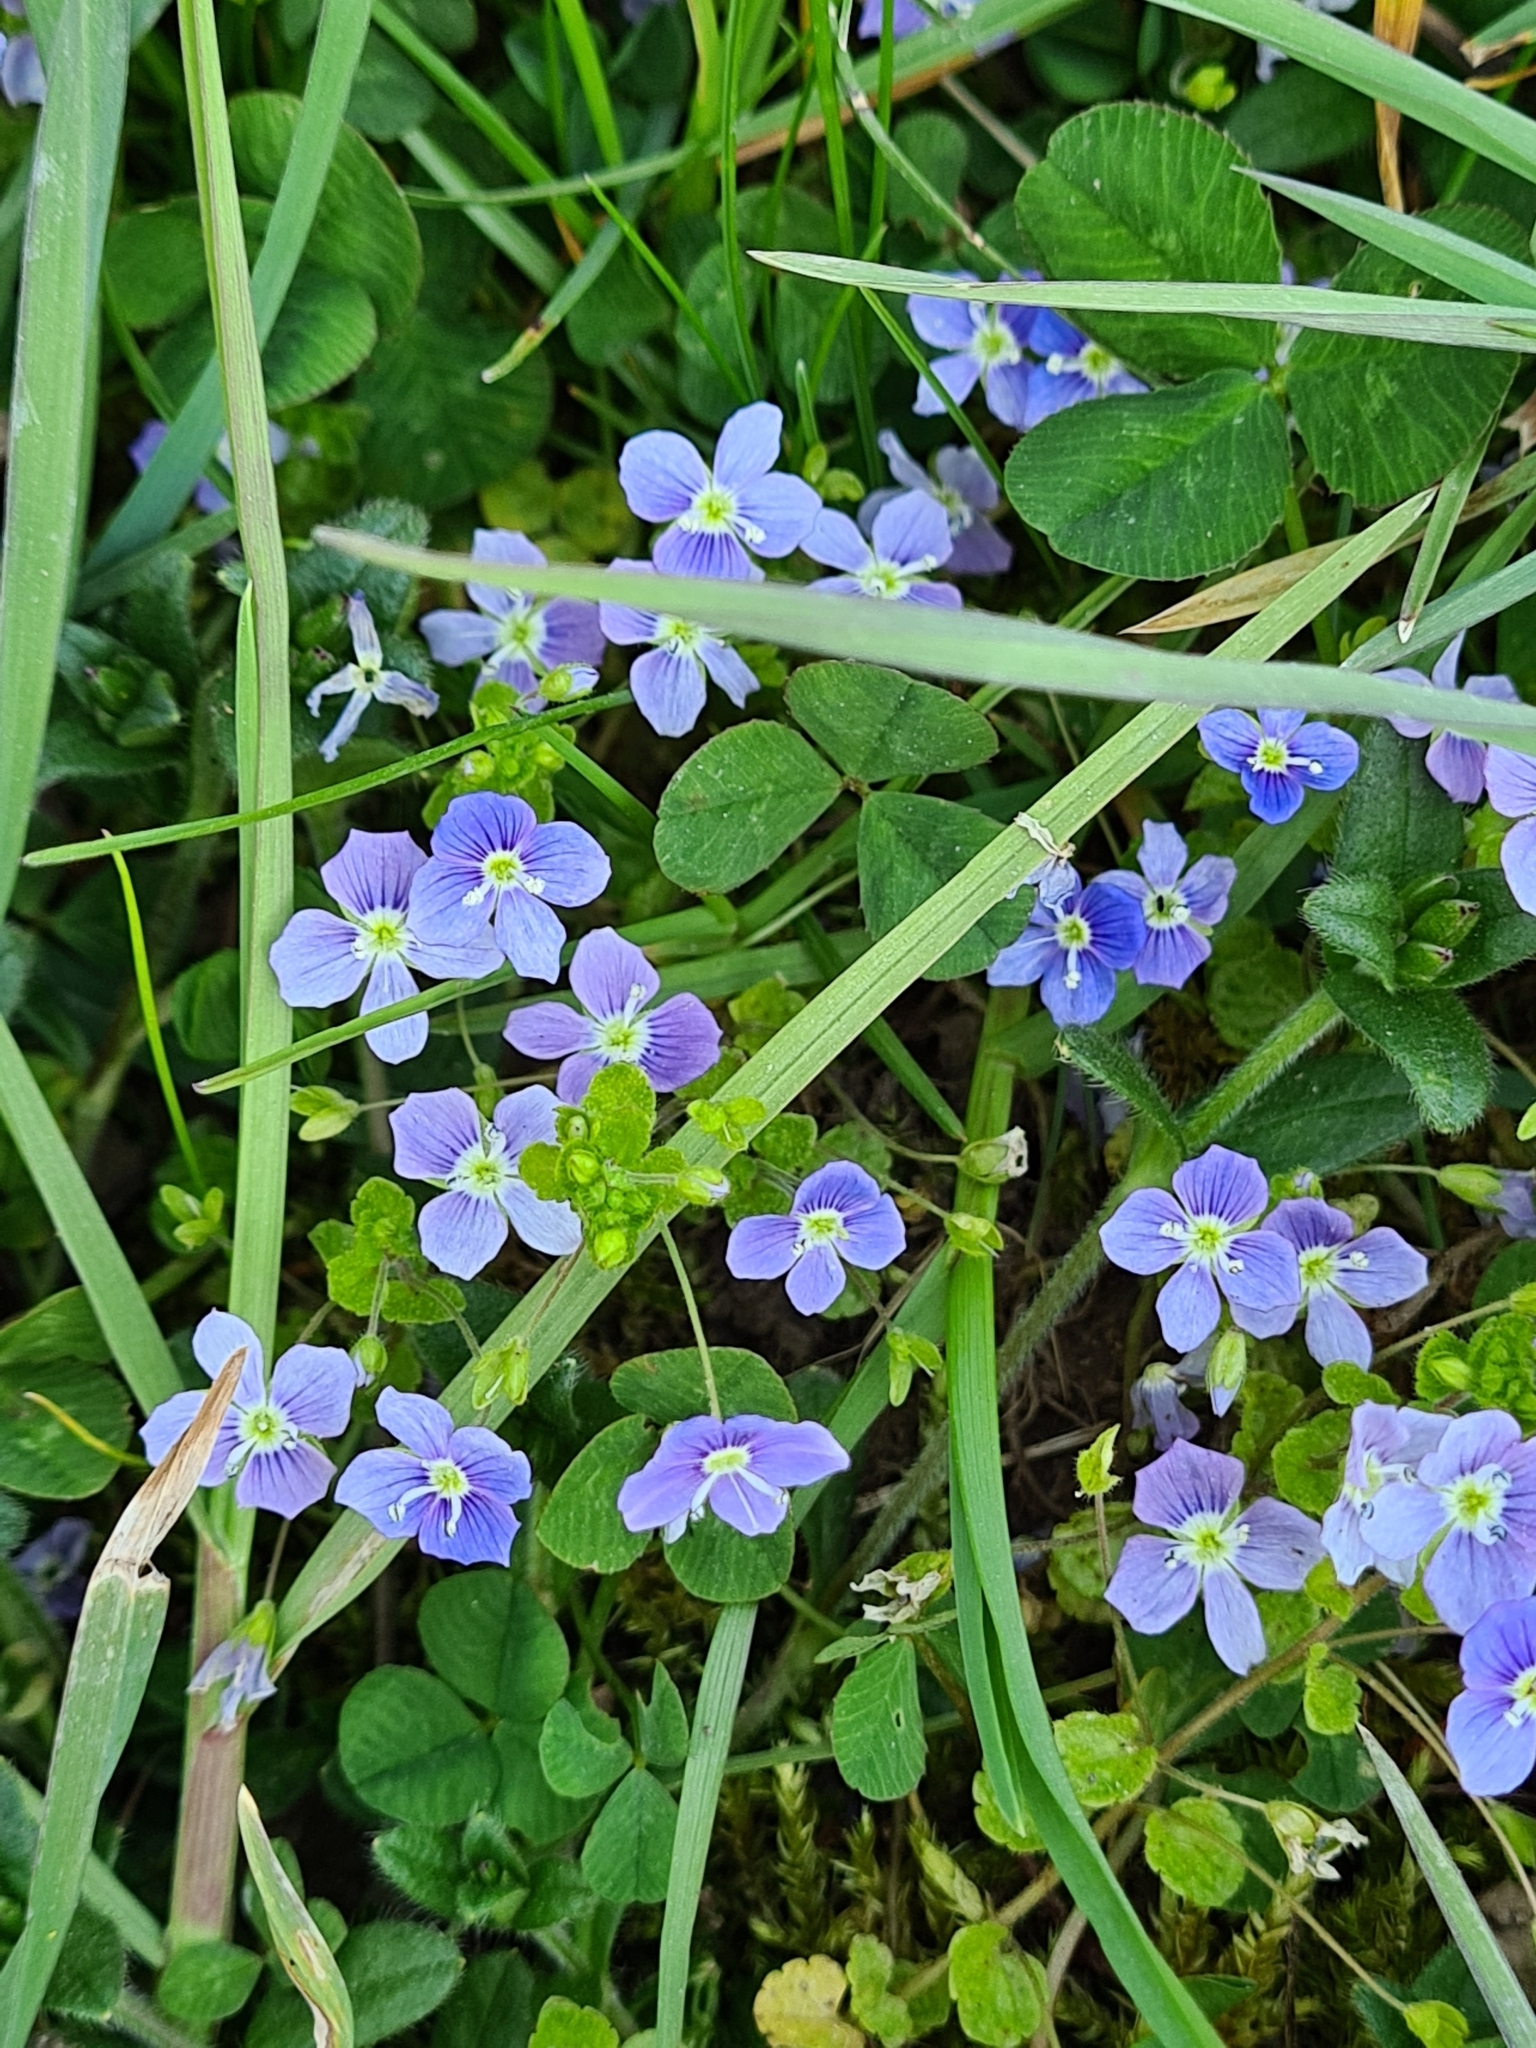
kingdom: Plantae
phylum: Tracheophyta
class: Magnoliopsida
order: Lamiales
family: Plantaginaceae
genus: Veronica
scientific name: Veronica filiformis
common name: Slender speedwell
